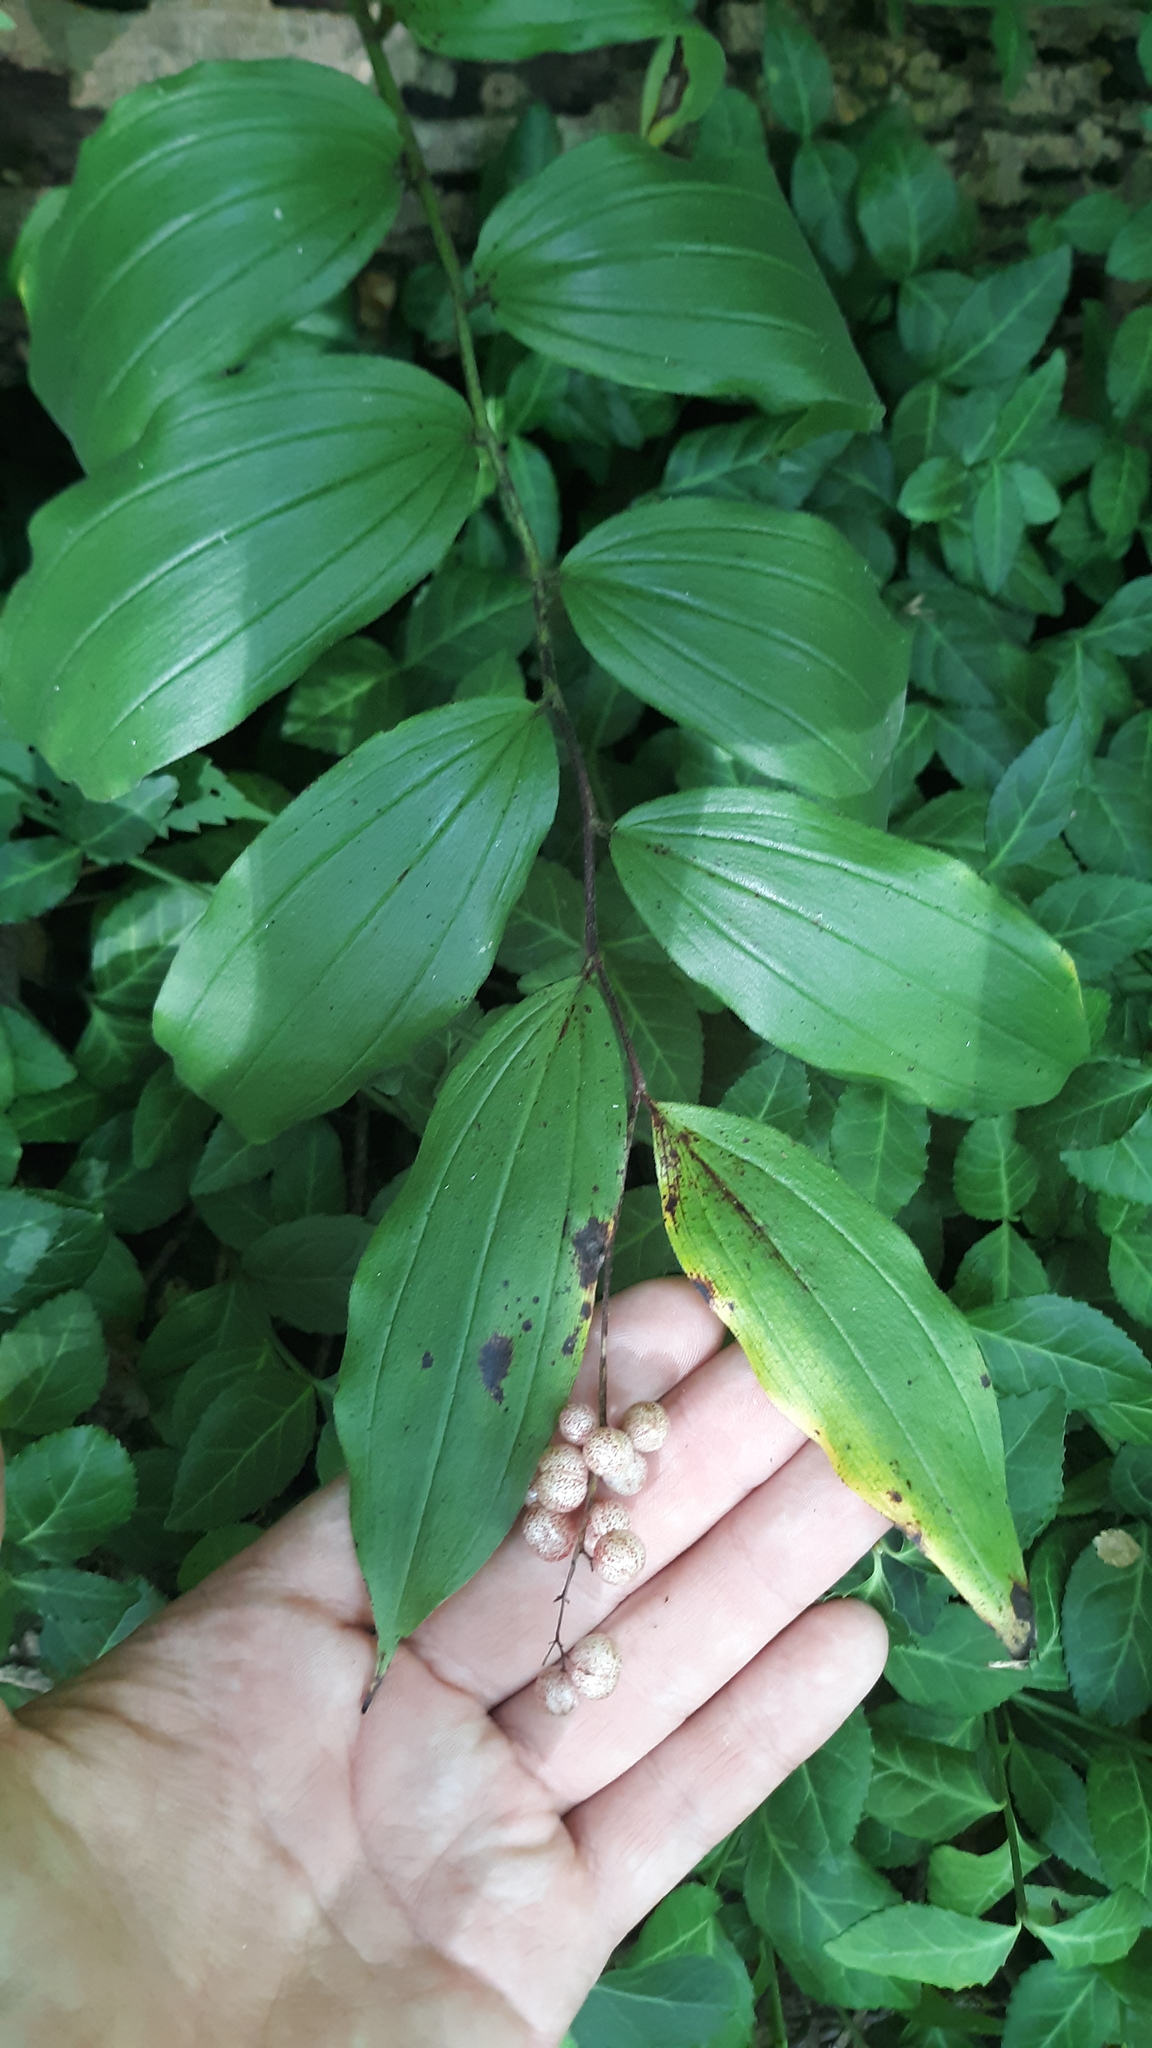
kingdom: Plantae
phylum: Tracheophyta
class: Liliopsida
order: Asparagales
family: Asparagaceae
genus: Maianthemum
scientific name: Maianthemum racemosum
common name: False spikenard
